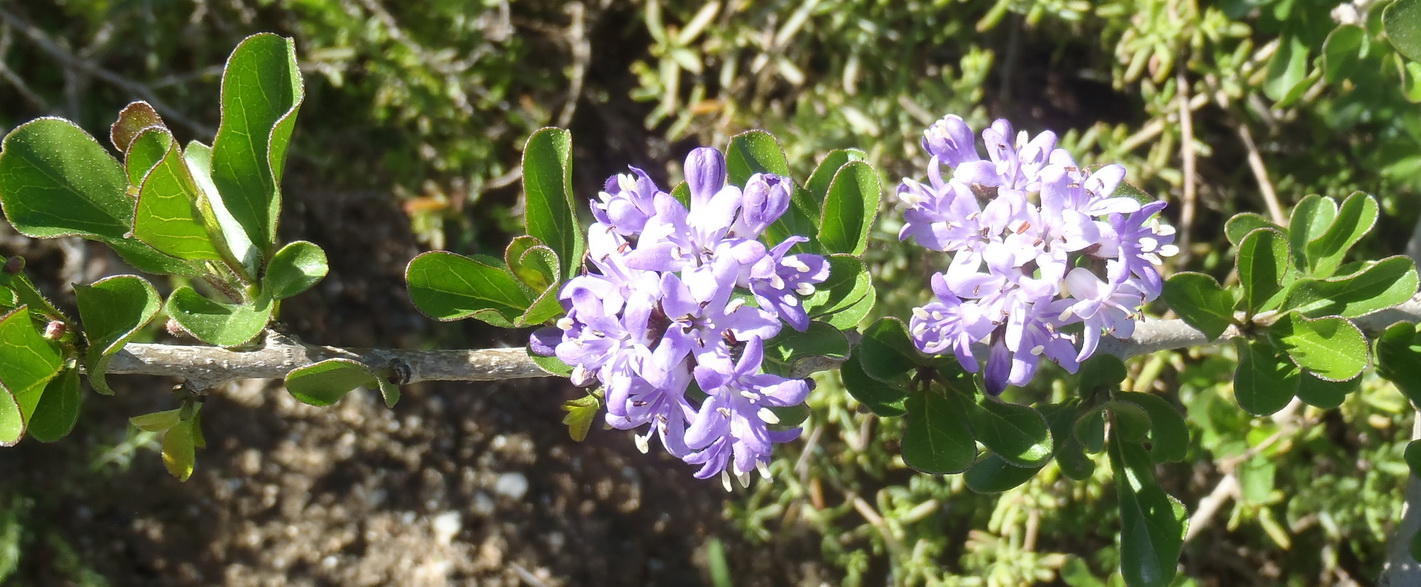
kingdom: Plantae
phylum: Tracheophyta
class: Magnoliopsida
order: Boraginales
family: Ehretiaceae
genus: Ehretia
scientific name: Ehretia rigida
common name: Cape lilac
